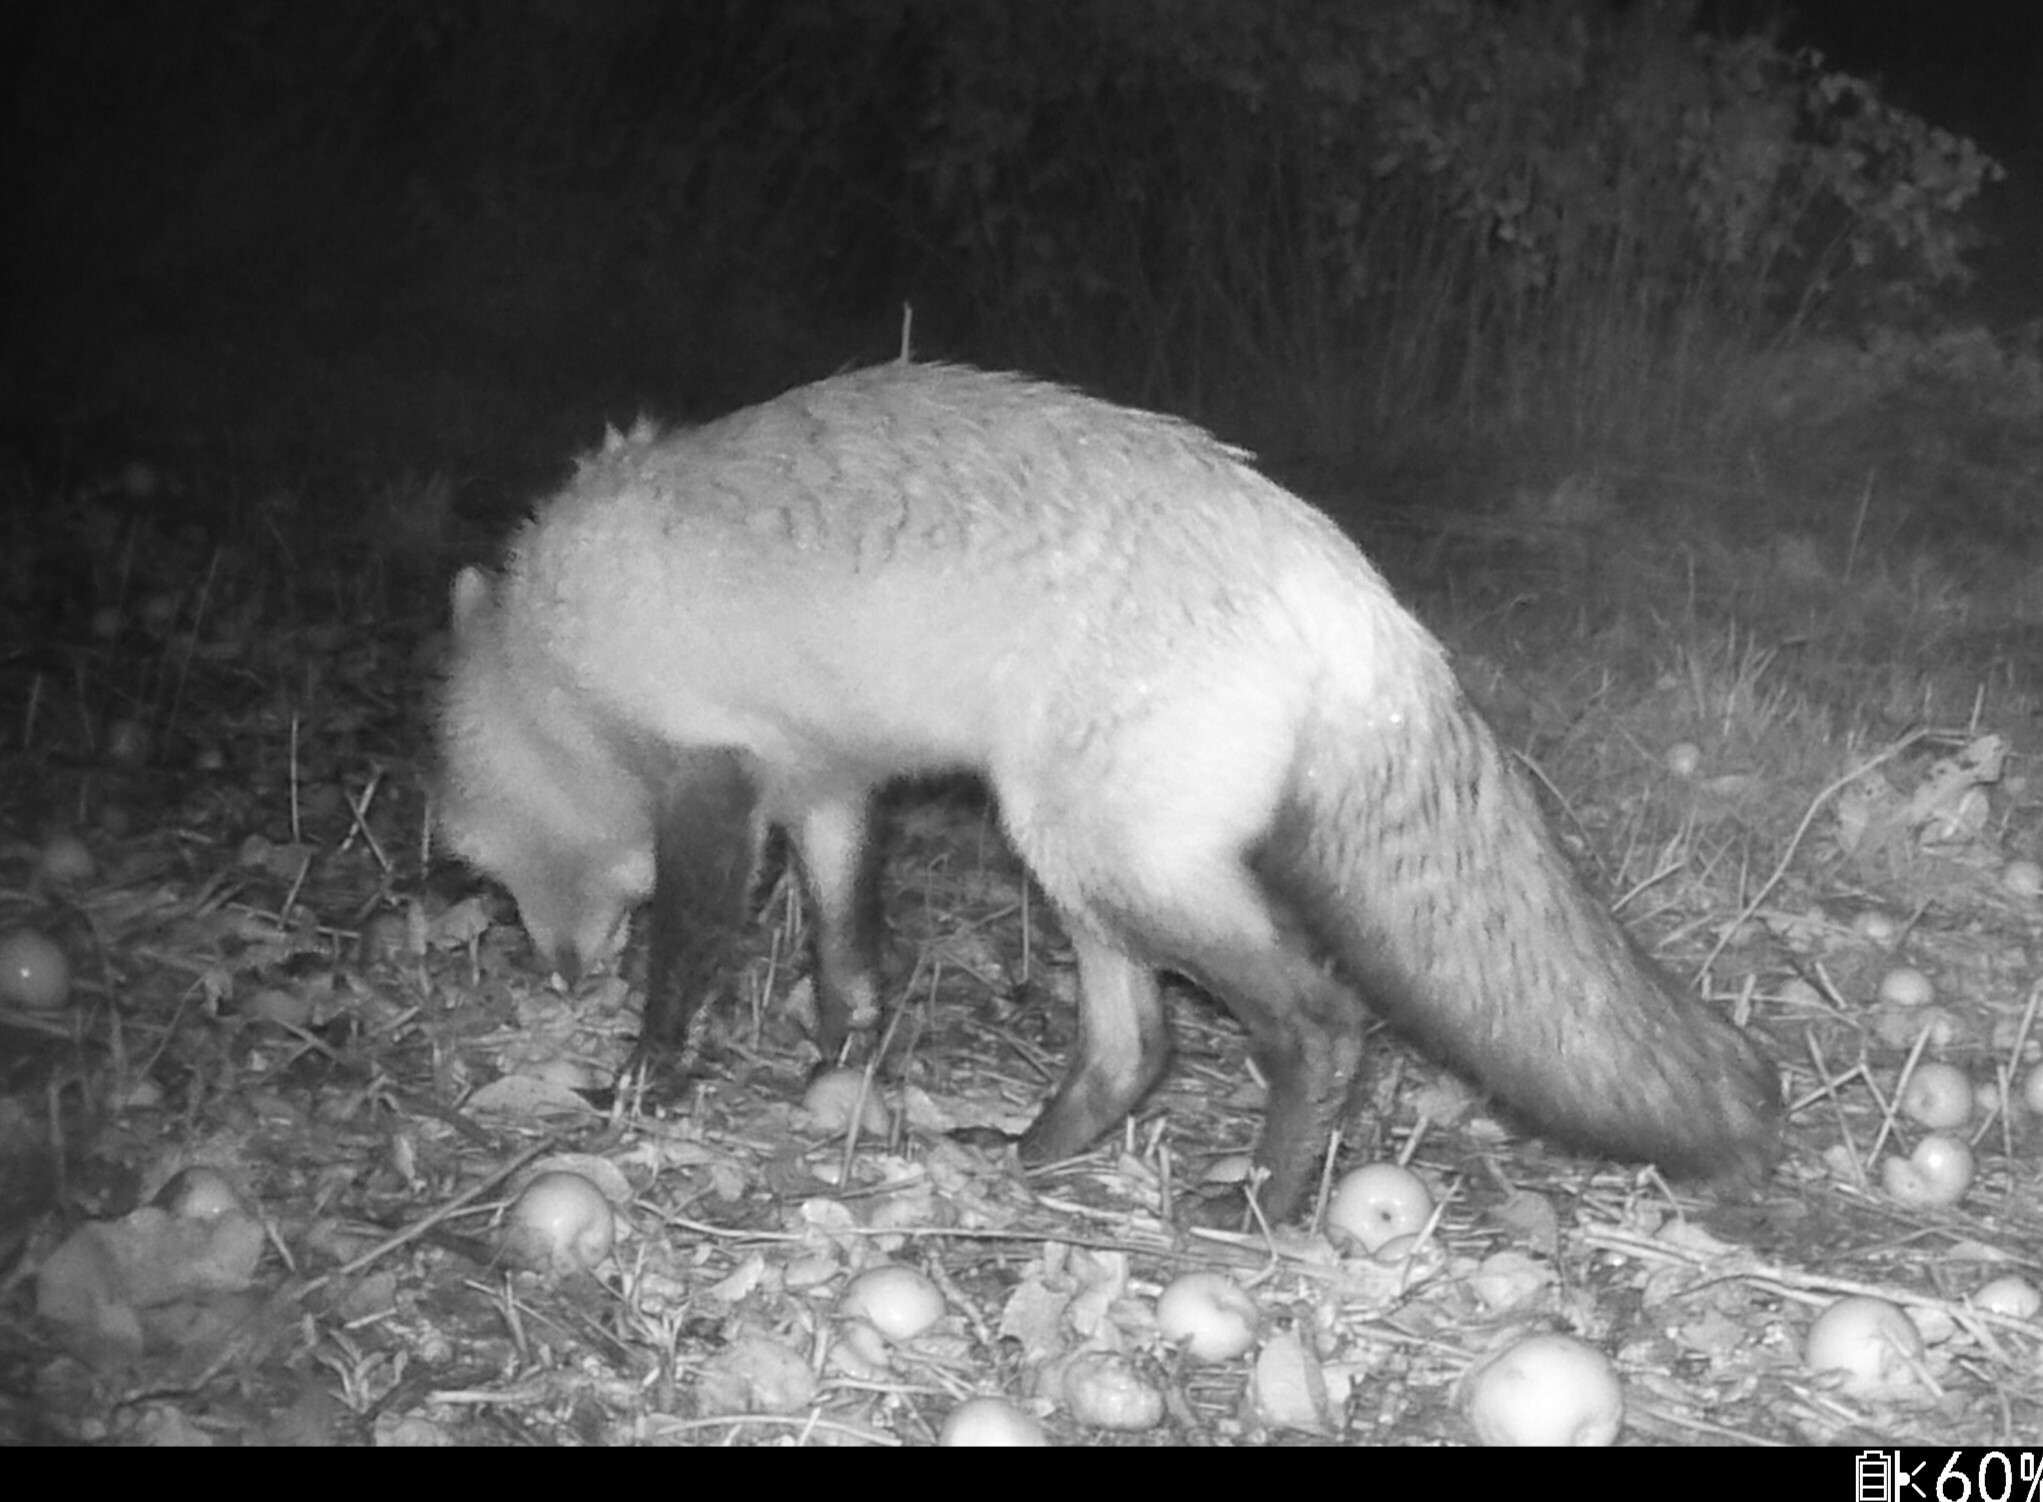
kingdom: Animalia
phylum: Chordata
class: Mammalia
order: Carnivora
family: Canidae
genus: Vulpes
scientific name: Vulpes vulpes
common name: Red fox
